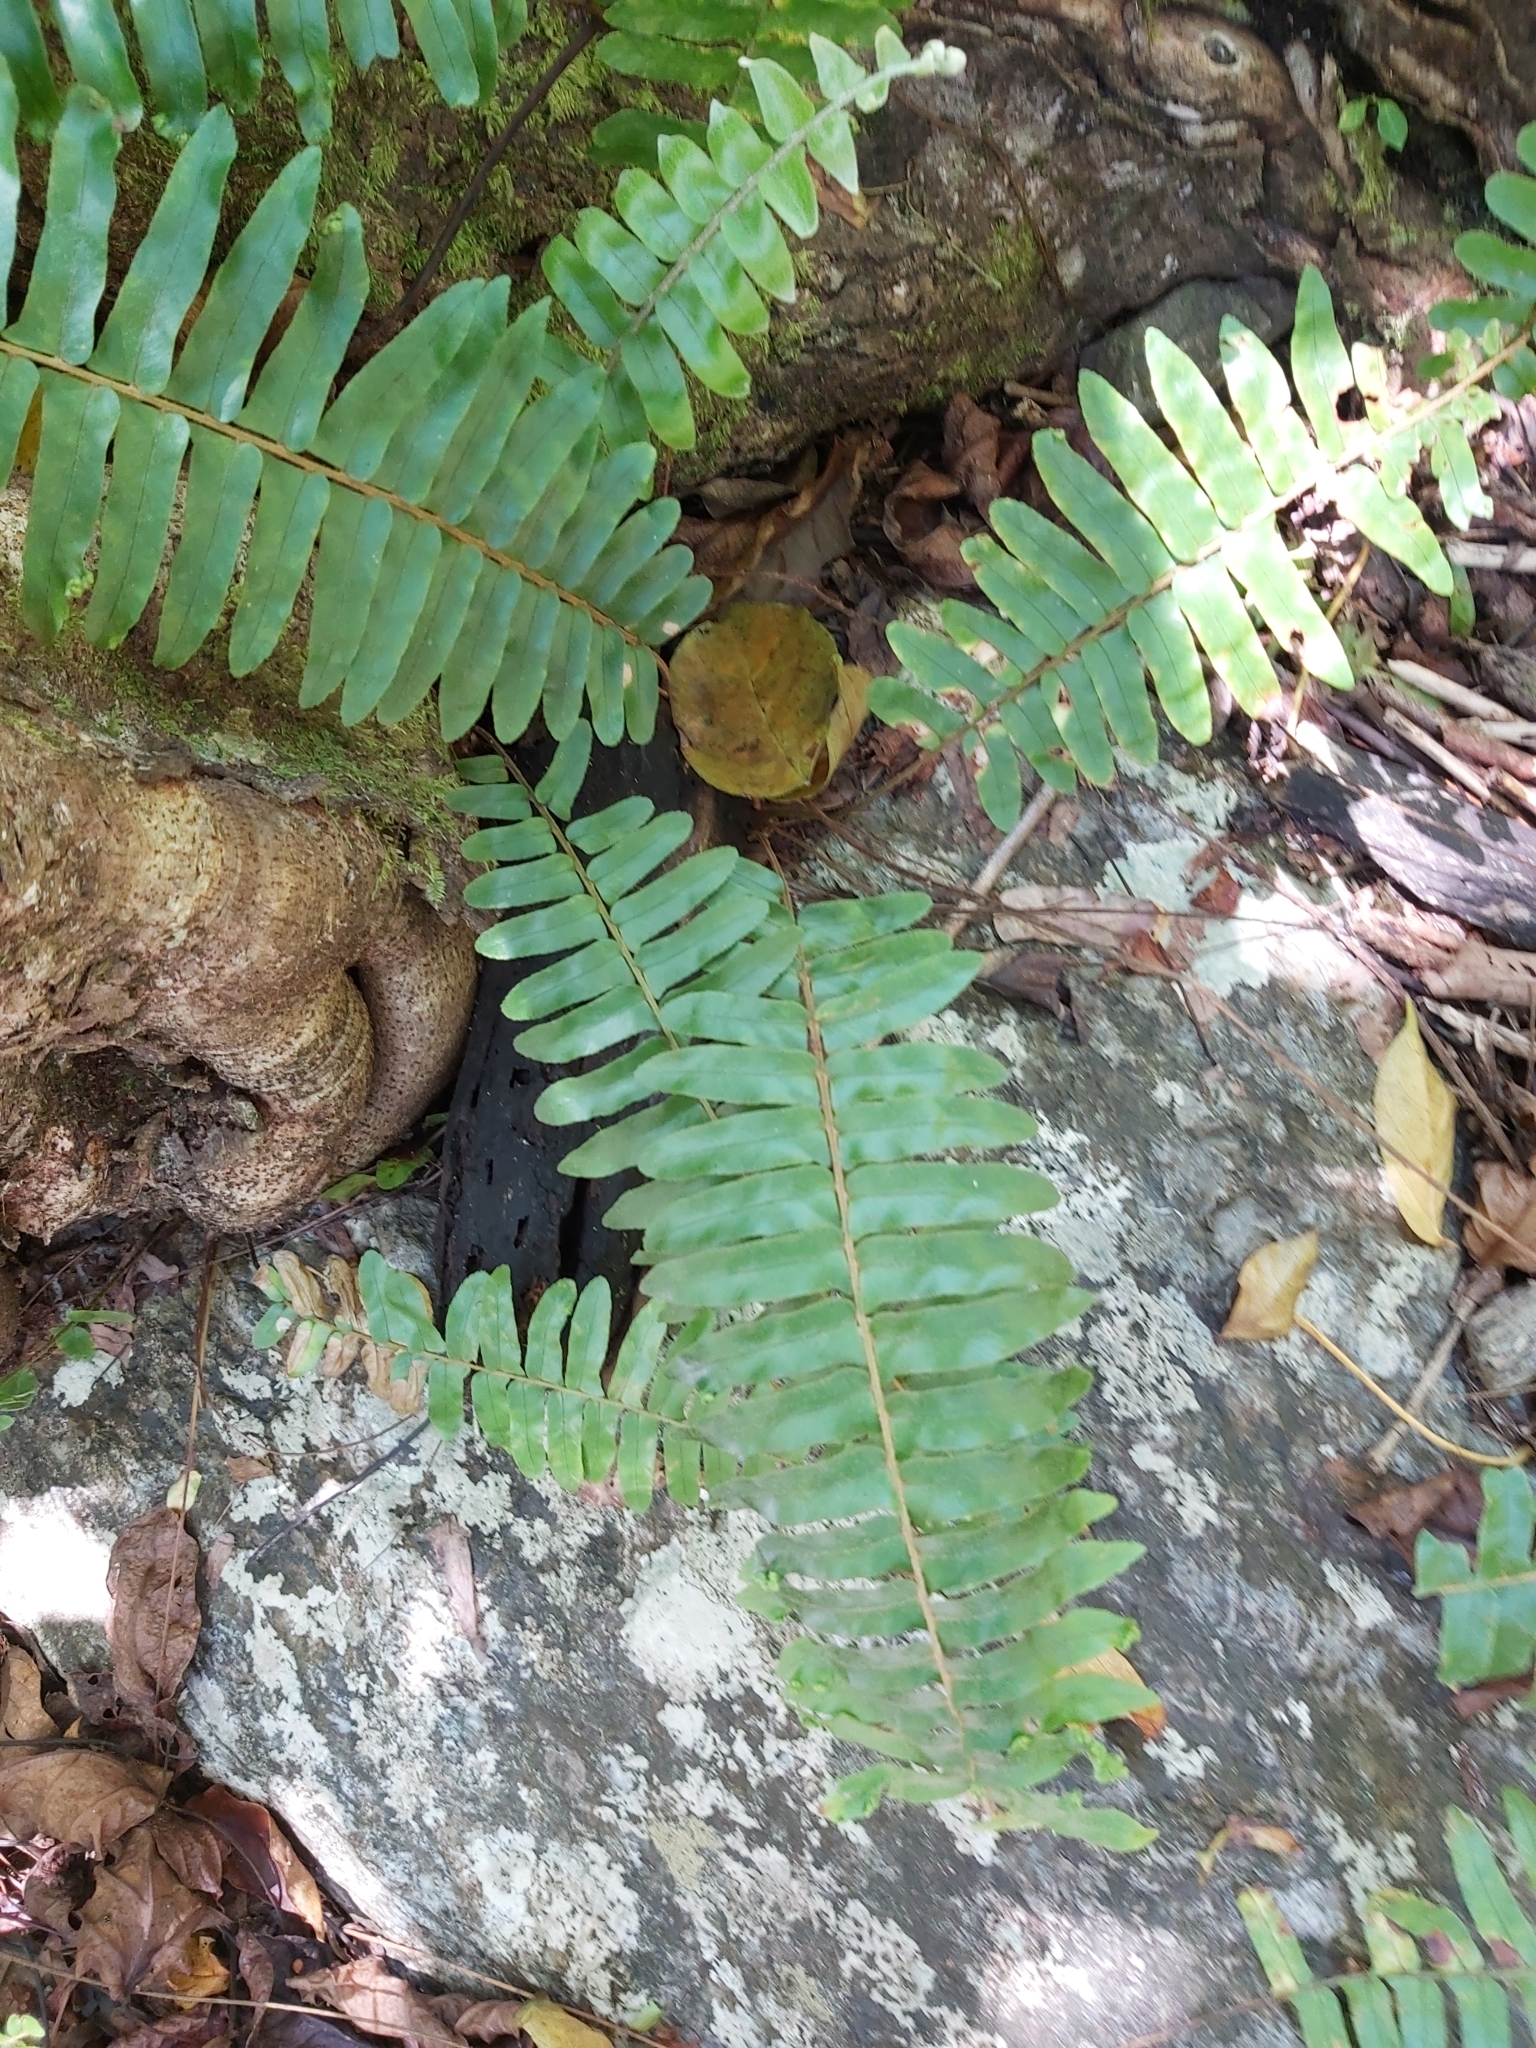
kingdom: Plantae
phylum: Tracheophyta
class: Polypodiopsida
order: Polypodiales
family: Nephrolepidaceae
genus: Nephrolepis
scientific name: Nephrolepis brownii
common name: Asian swordfern
